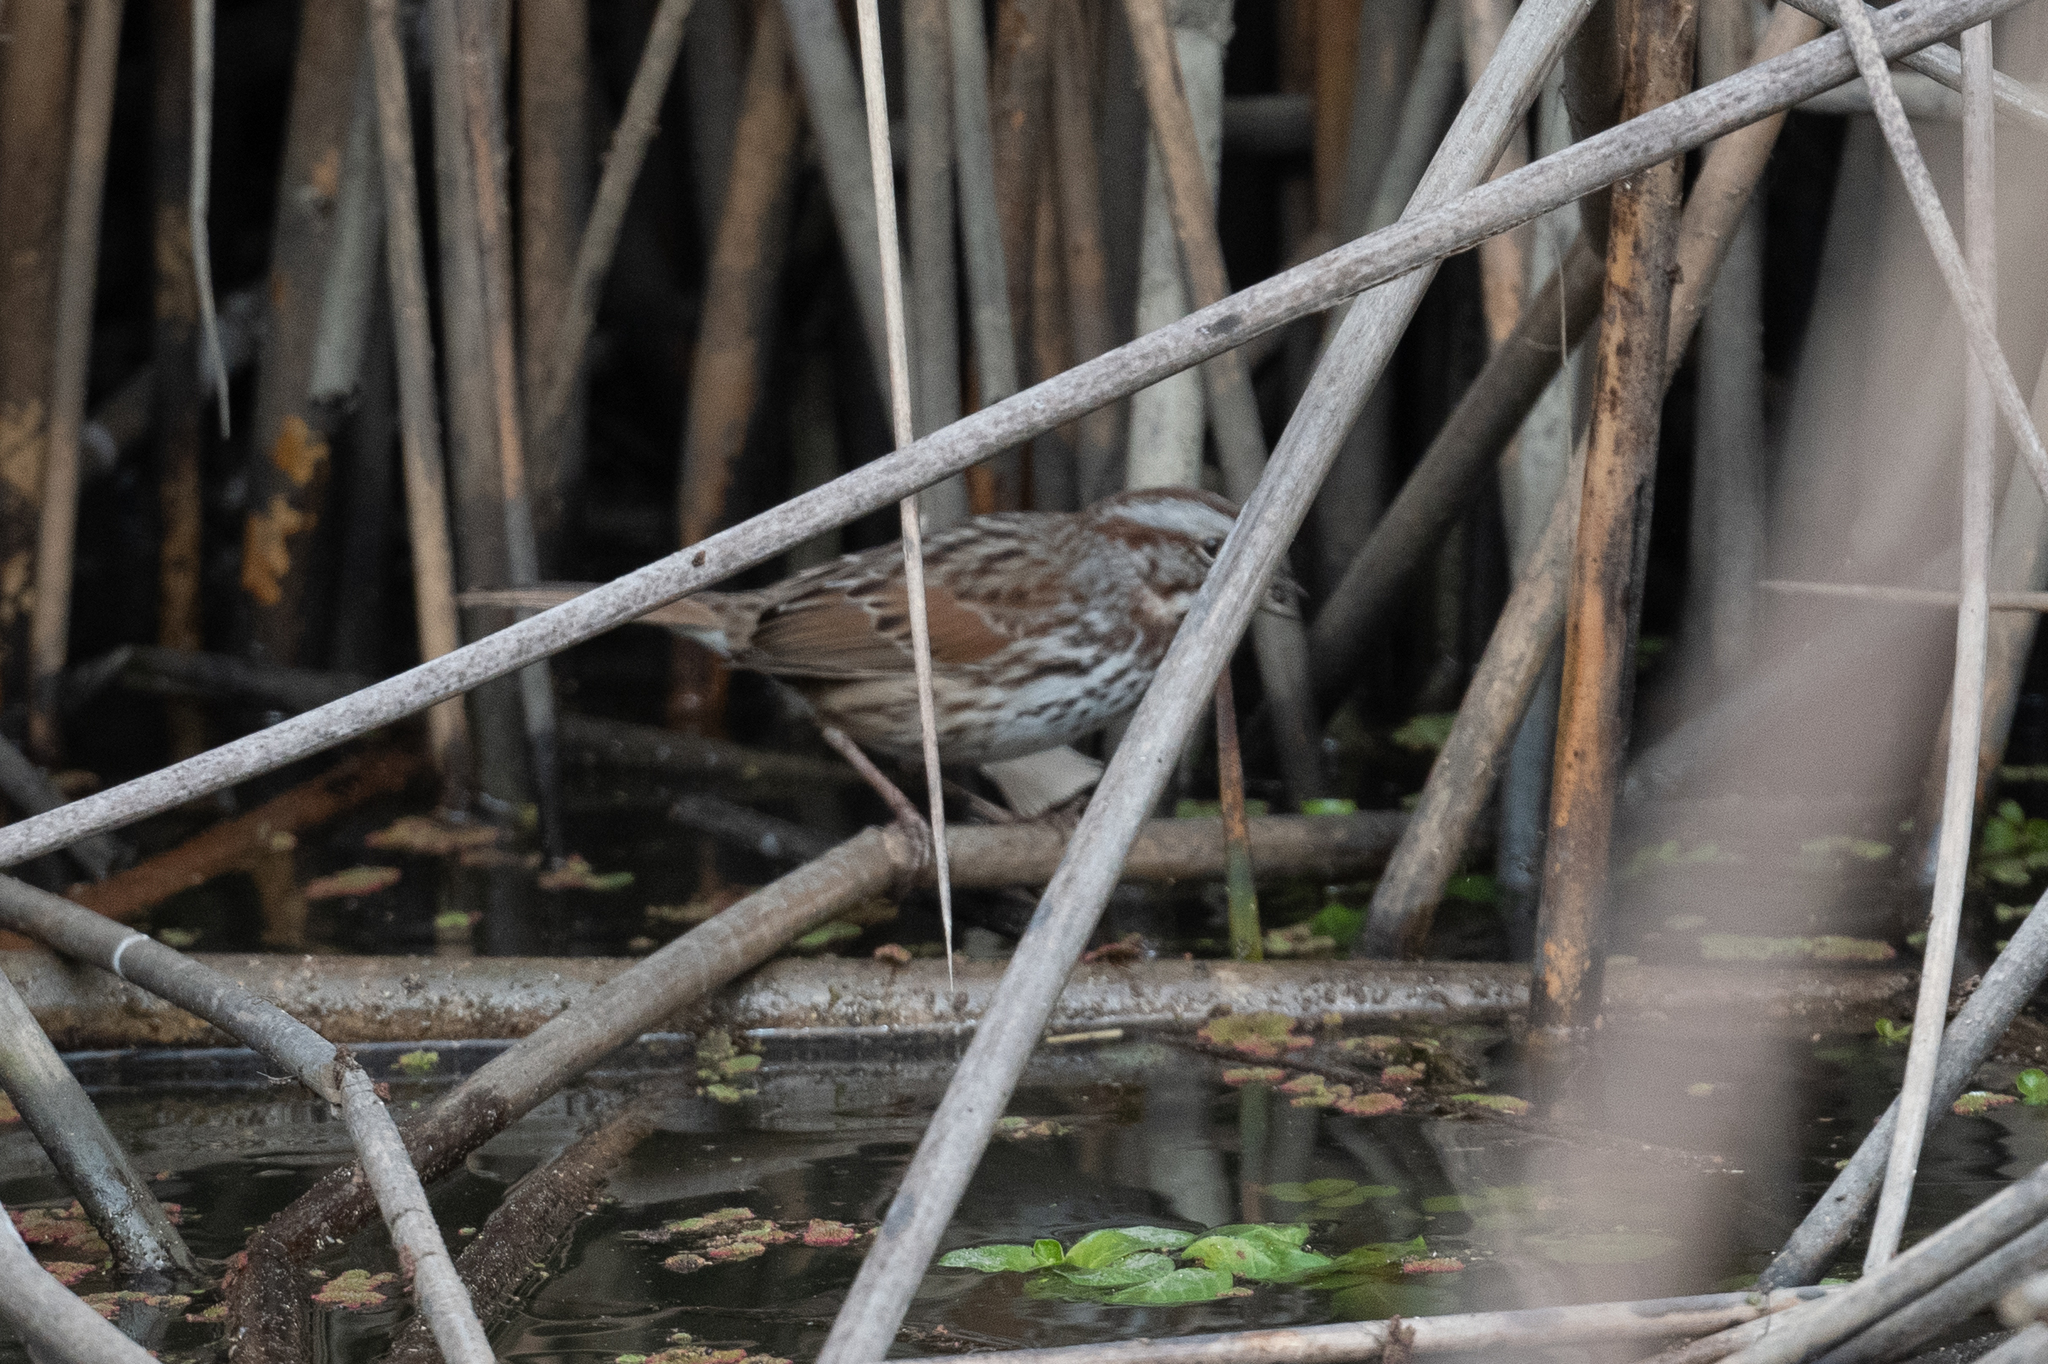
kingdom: Animalia
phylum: Chordata
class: Aves
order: Passeriformes
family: Passerellidae
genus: Melospiza
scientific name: Melospiza melodia
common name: Song sparrow
